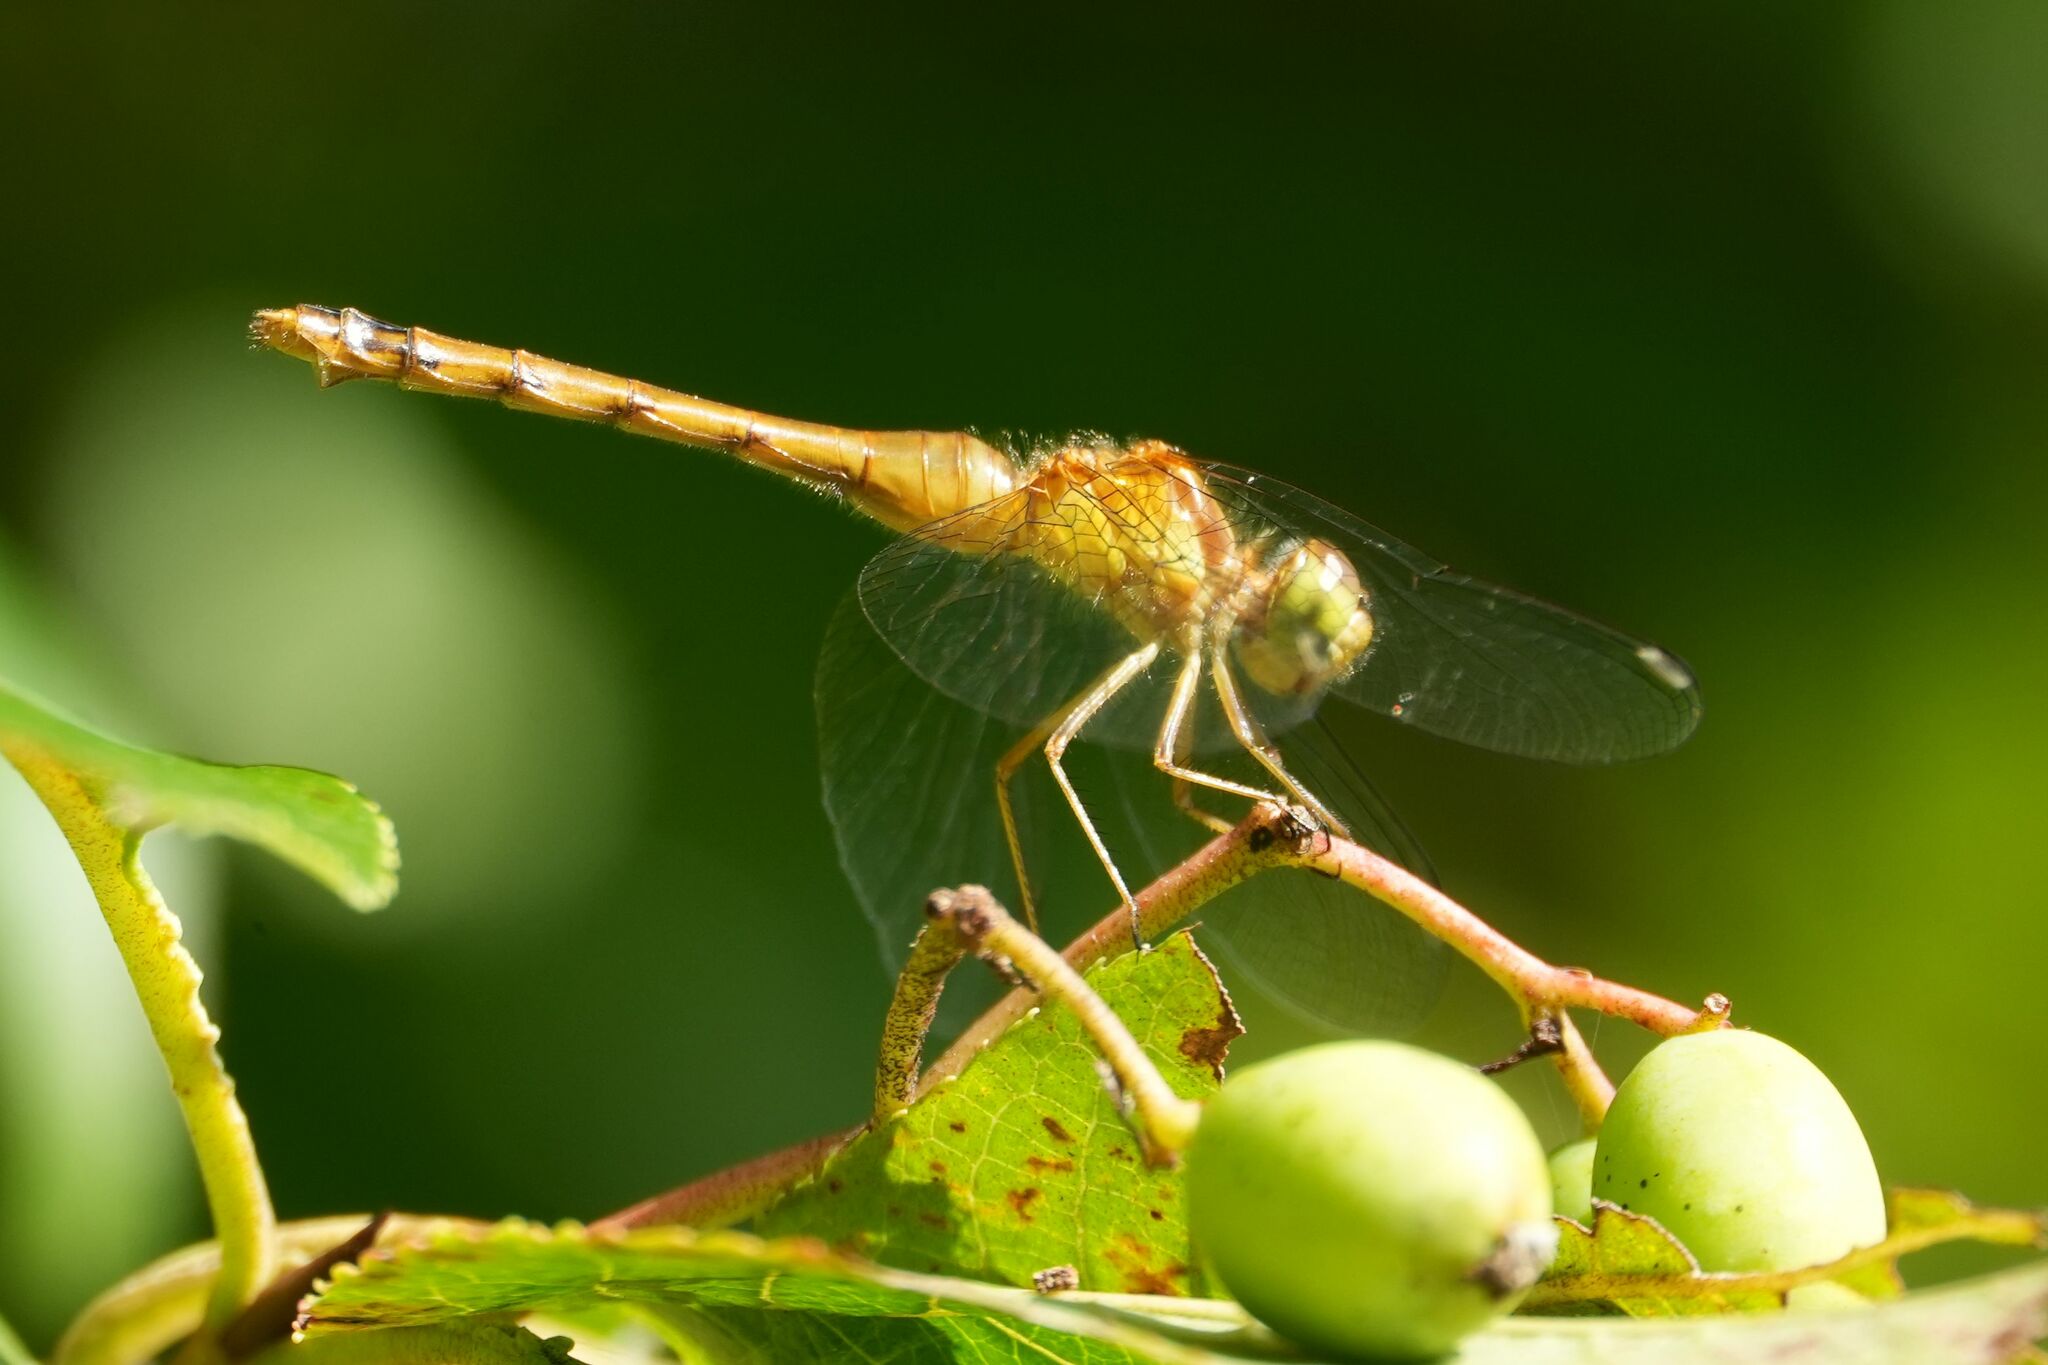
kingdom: Animalia
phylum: Arthropoda
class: Insecta
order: Odonata
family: Libellulidae
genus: Sympetrum
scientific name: Sympetrum vicinum
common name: Autumn meadowhawk
